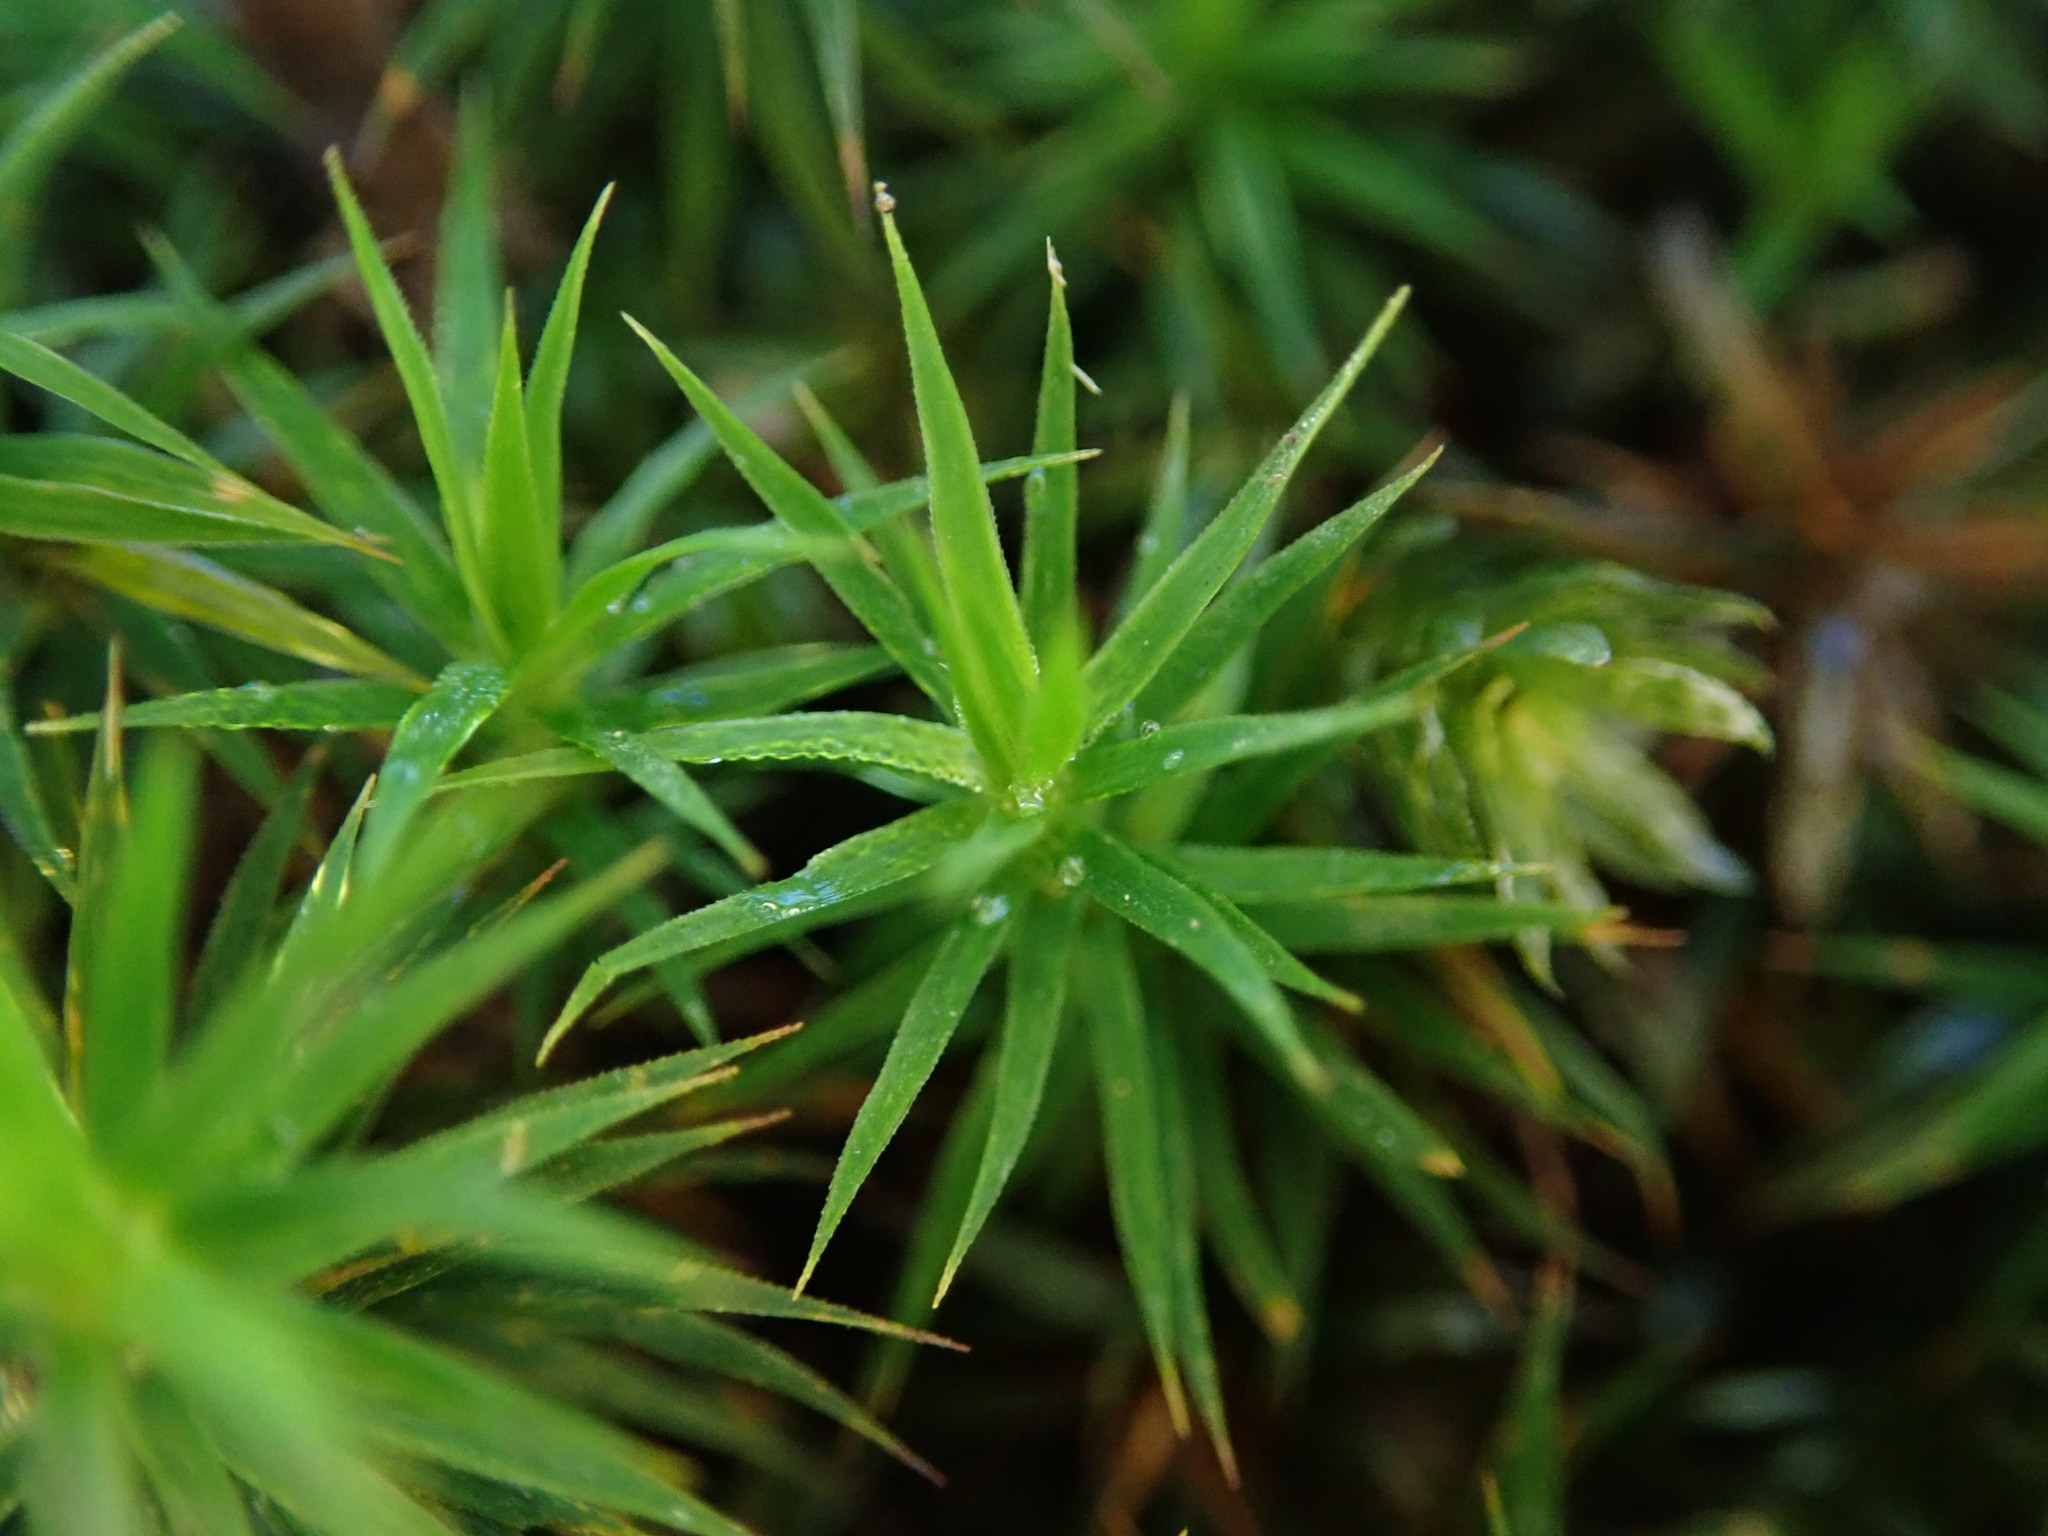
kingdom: Plantae
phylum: Bryophyta
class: Polytrichopsida
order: Polytrichales
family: Polytrichaceae
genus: Polytrichum
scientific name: Polytrichum formosum
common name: Bank haircap moss
